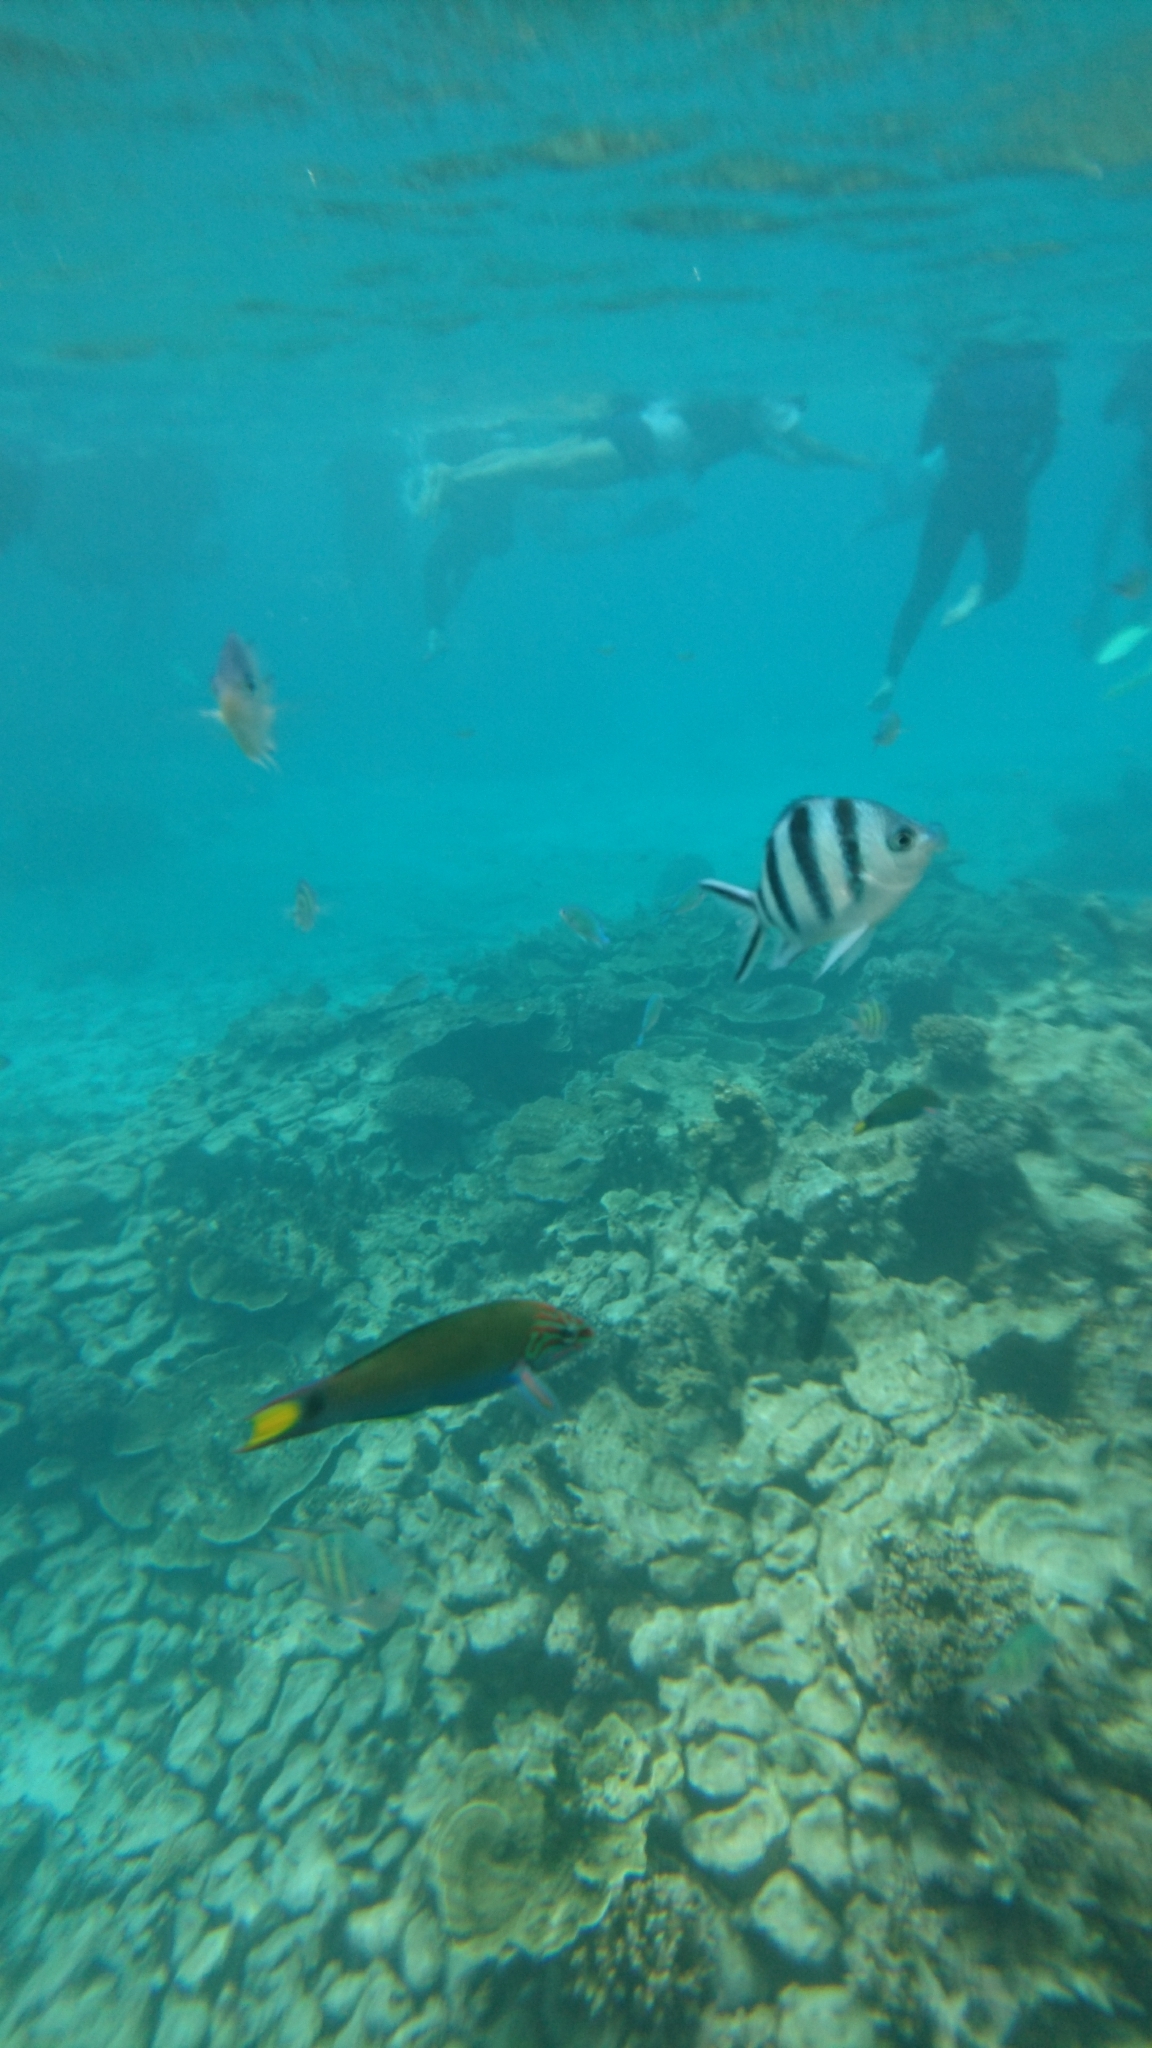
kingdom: Animalia
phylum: Chordata
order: Perciformes
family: Labridae
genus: Thalassoma
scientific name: Thalassoma lunare
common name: Blue wrasse
